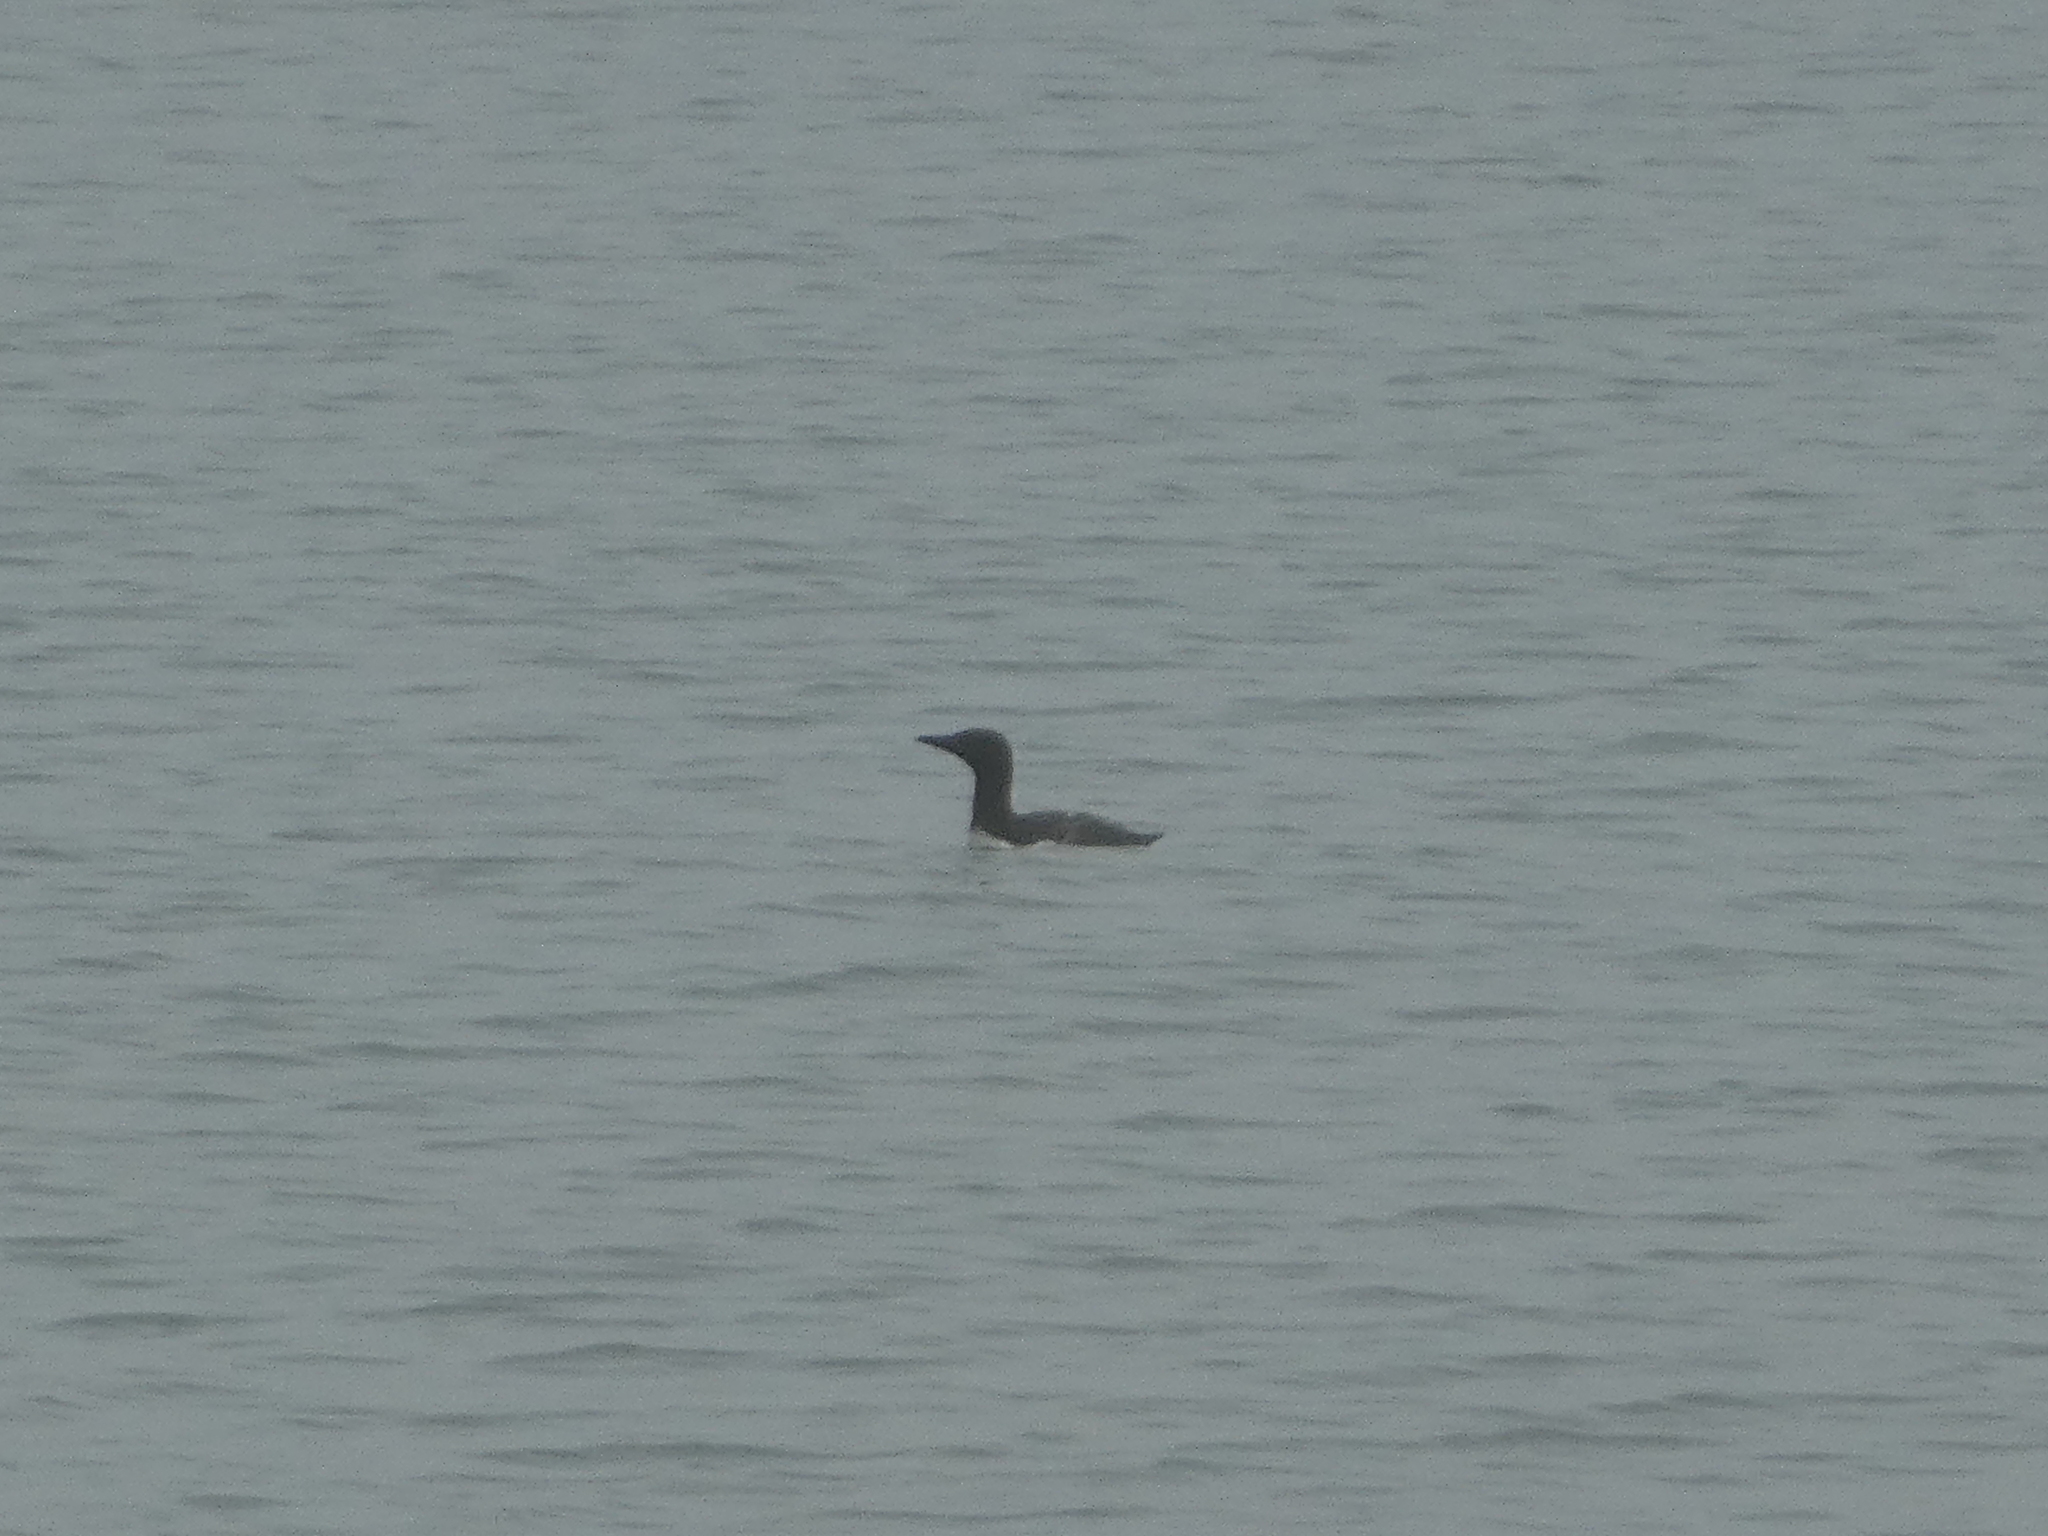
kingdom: Animalia
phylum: Chordata
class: Aves
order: Gaviiformes
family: Gaviidae
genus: Gavia
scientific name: Gavia stellata
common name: Red-throated loon
